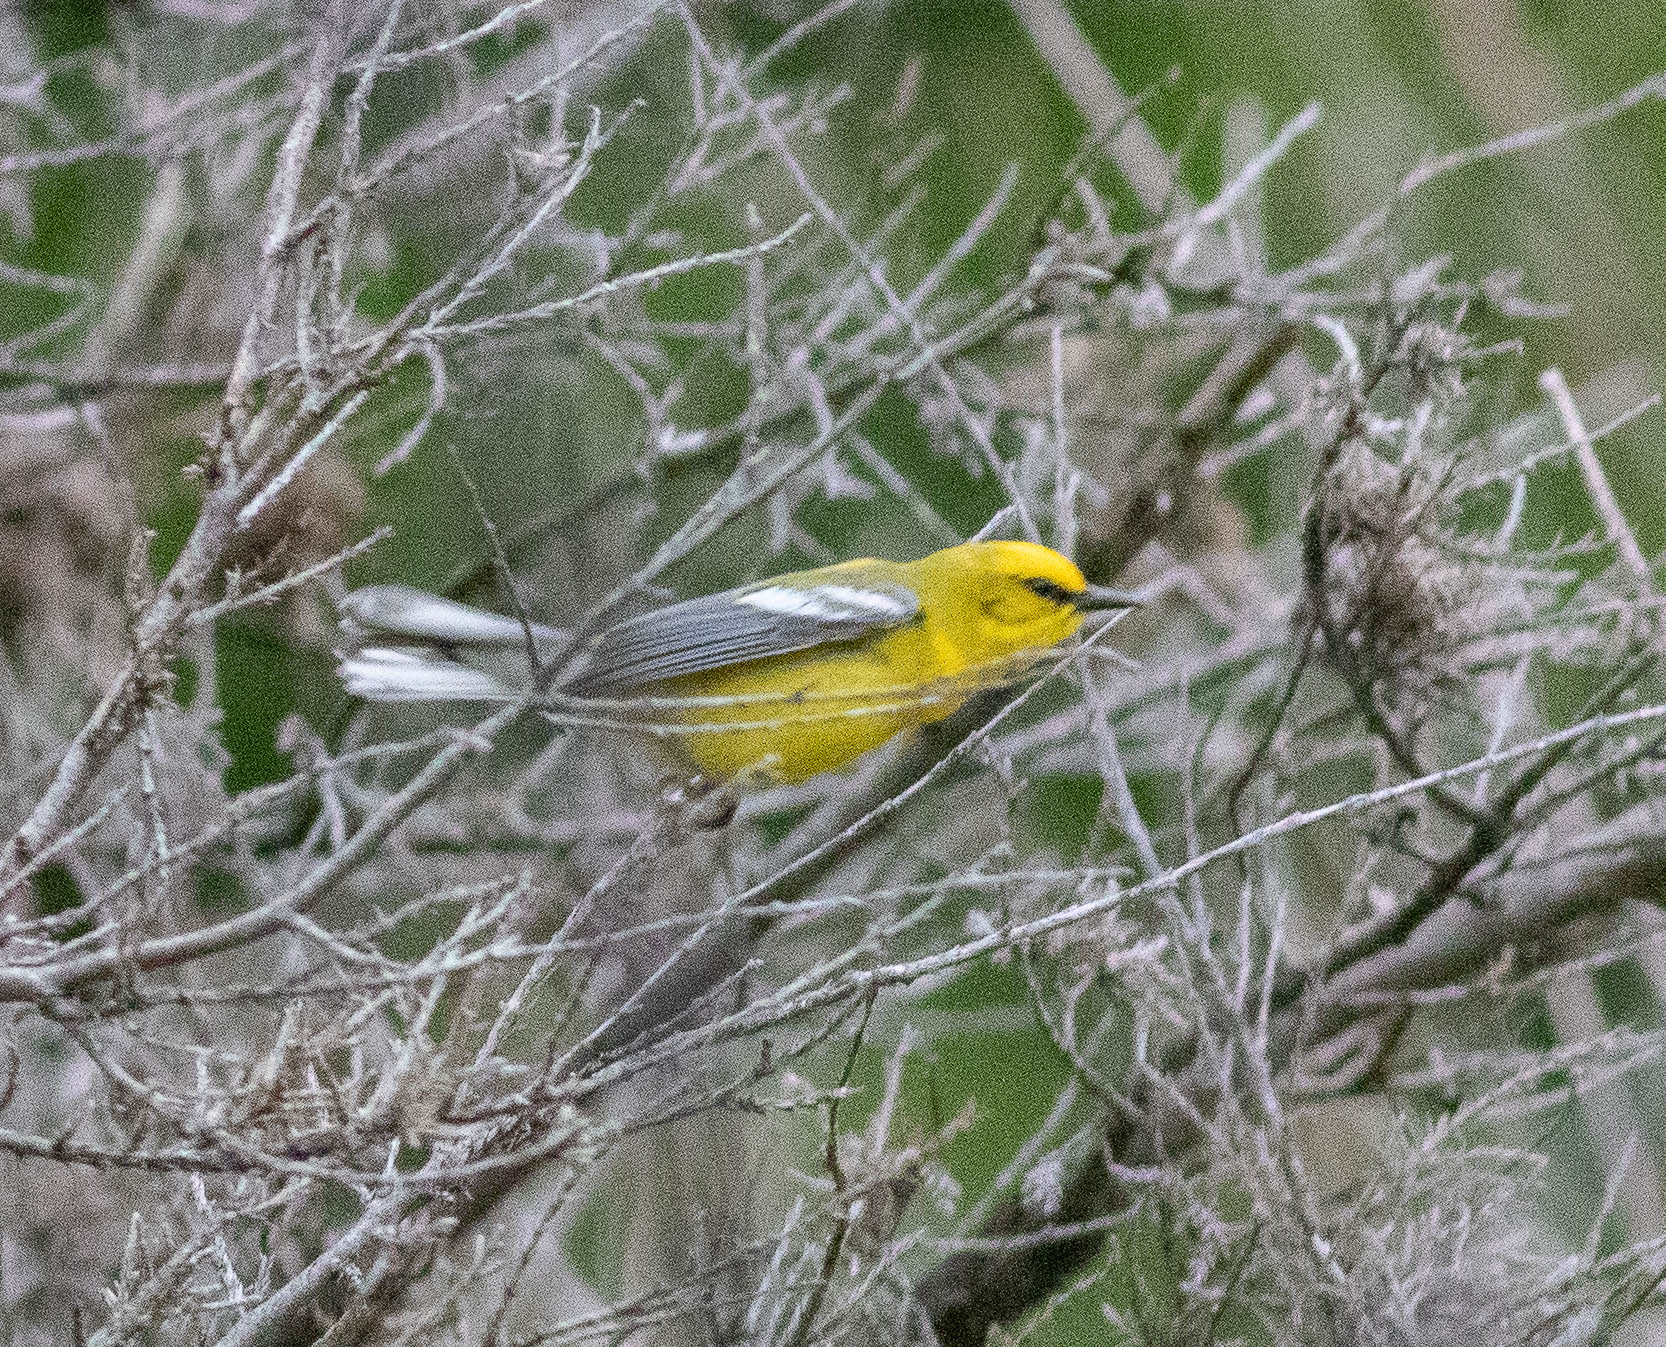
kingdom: Animalia
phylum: Chordata
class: Aves
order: Passeriformes
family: Parulidae
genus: Vermivora
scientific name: Vermivora cyanoptera
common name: Blue-winged warbler
